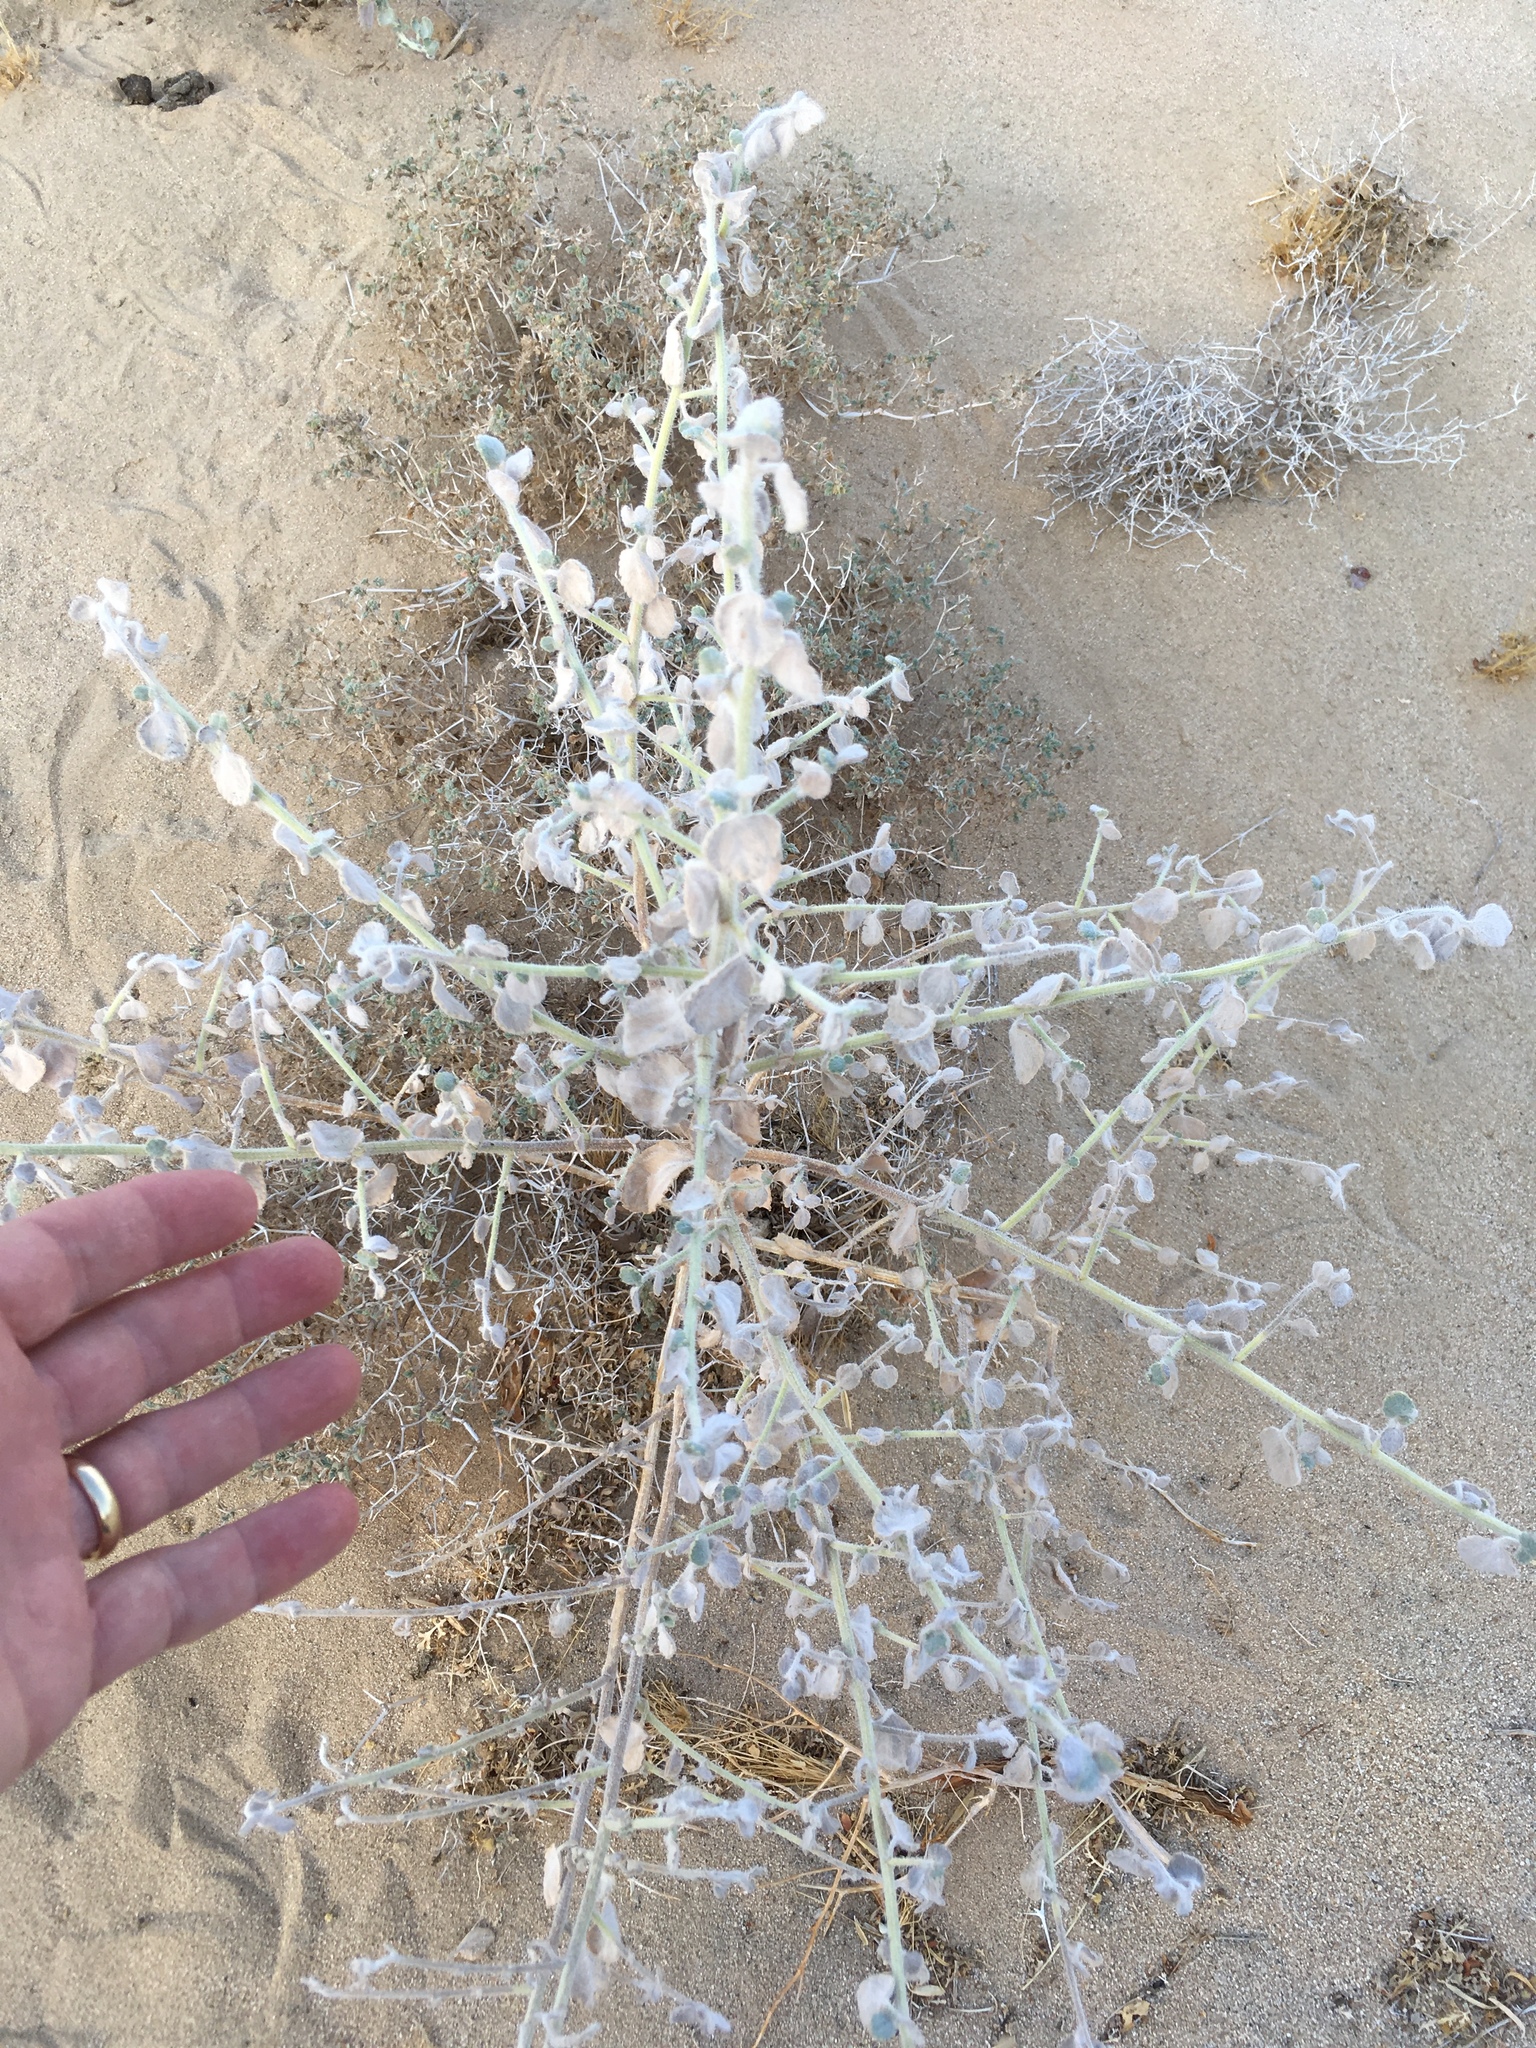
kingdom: Plantae
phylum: Tracheophyta
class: Magnoliopsida
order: Asterales
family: Asteraceae
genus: Dicoria
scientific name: Dicoria canescens
